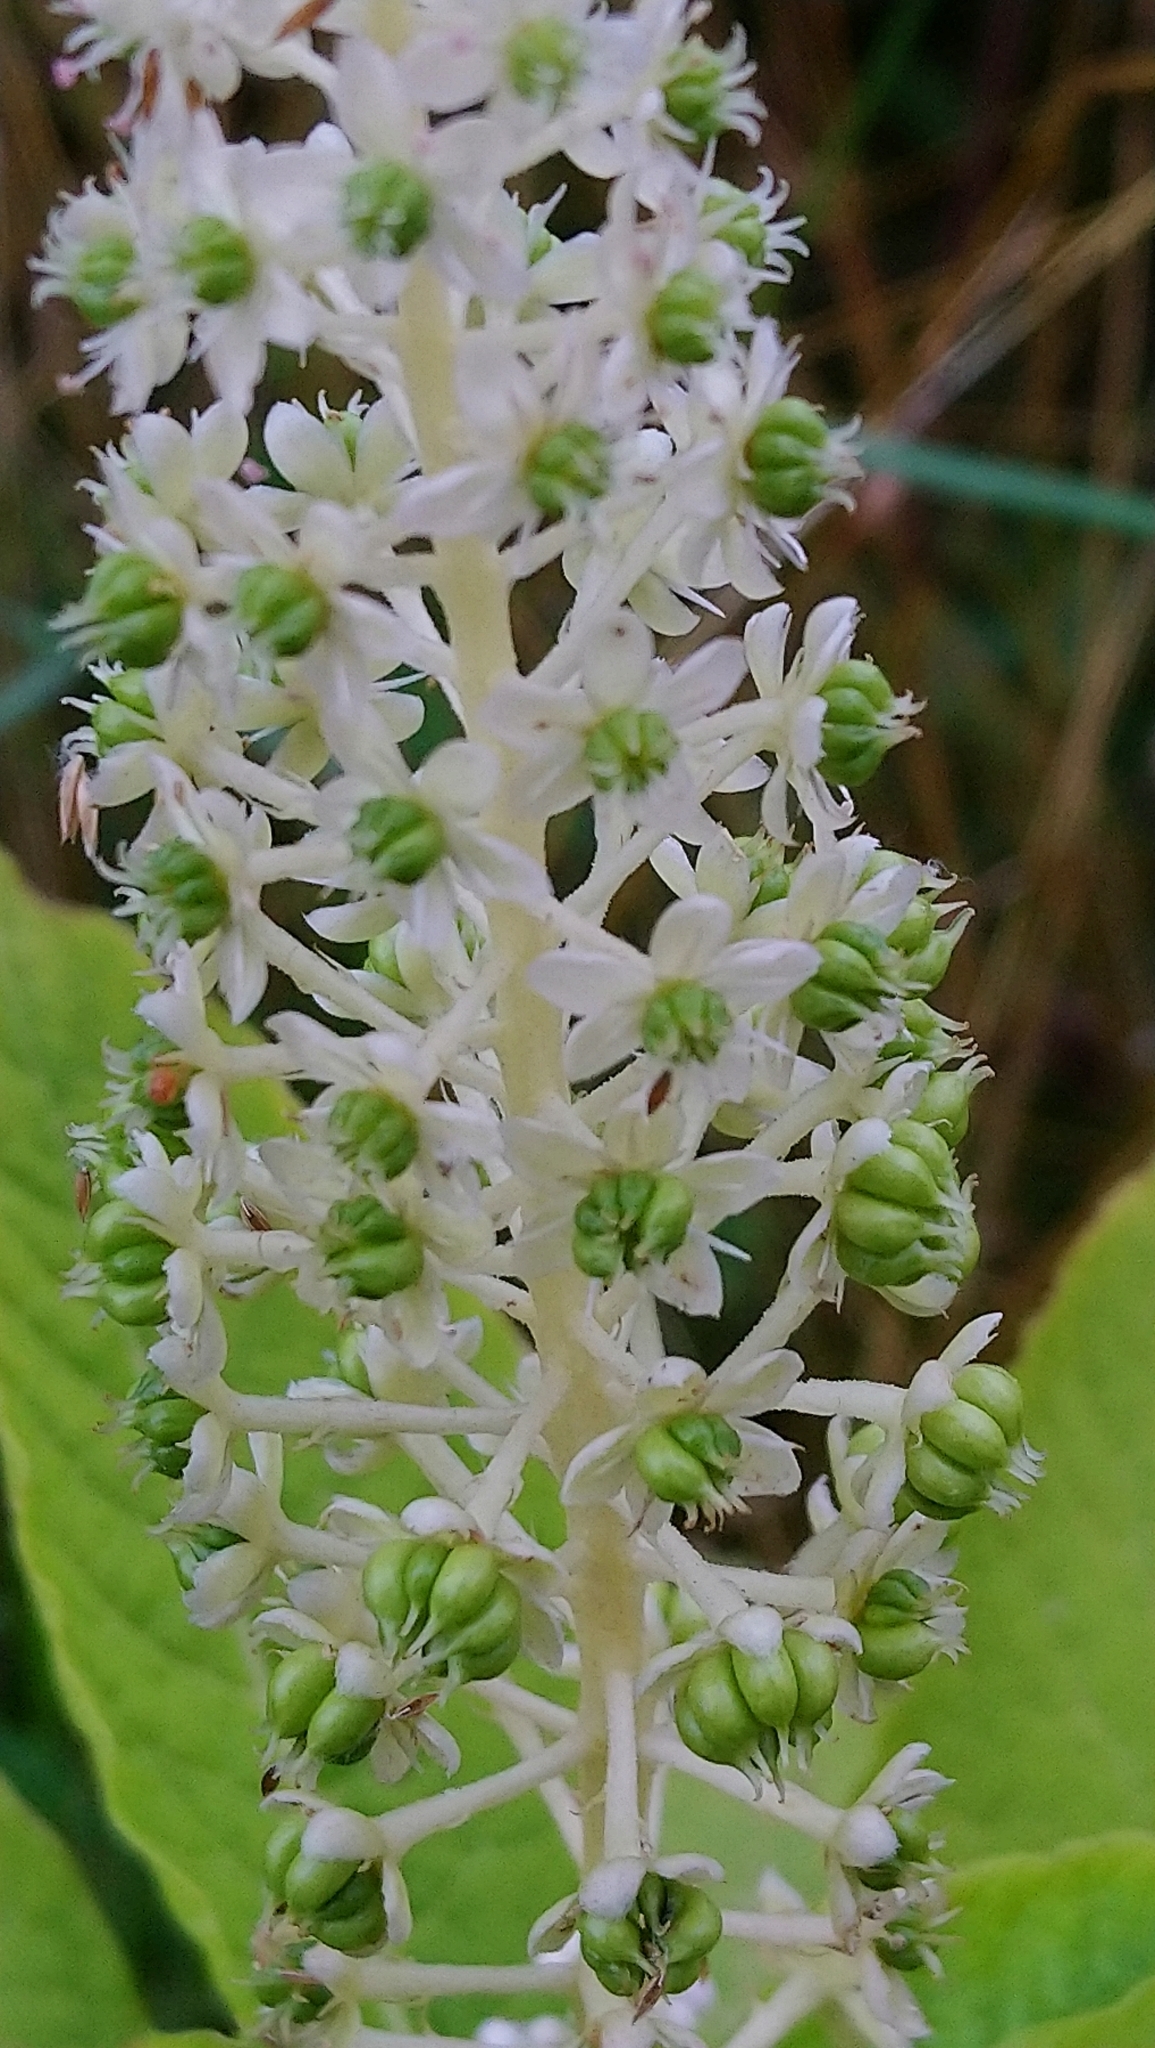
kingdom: Plantae
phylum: Tracheophyta
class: Magnoliopsida
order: Caryophyllales
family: Phytolaccaceae
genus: Phytolacca
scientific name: Phytolacca acinosa
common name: Indian pokeweed
